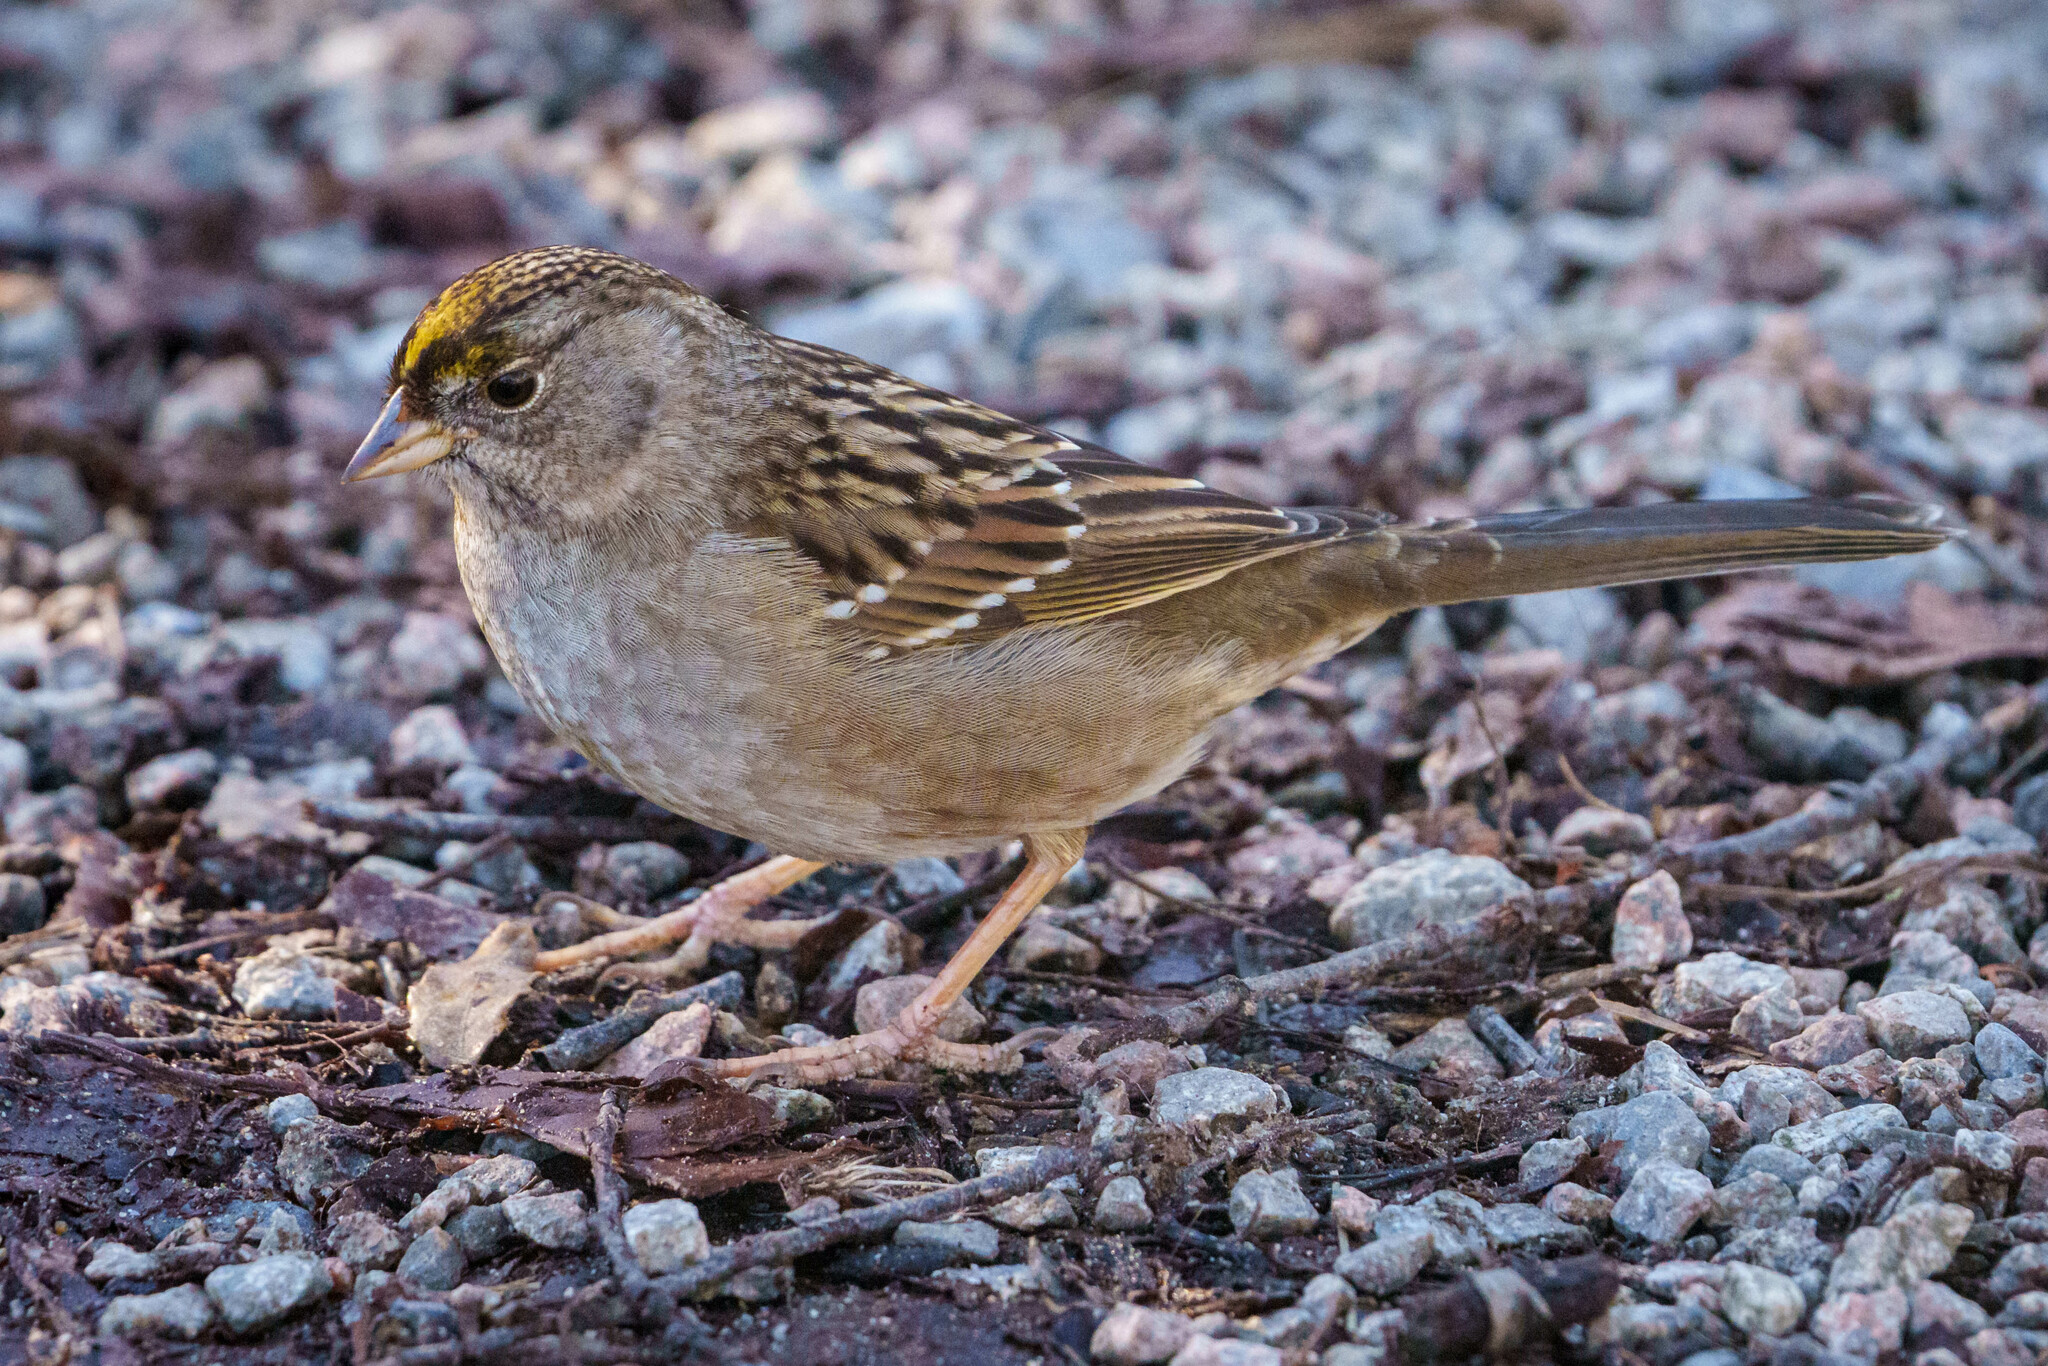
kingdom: Animalia
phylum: Chordata
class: Aves
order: Passeriformes
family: Passerellidae
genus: Zonotrichia
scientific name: Zonotrichia atricapilla
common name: Golden-crowned sparrow
